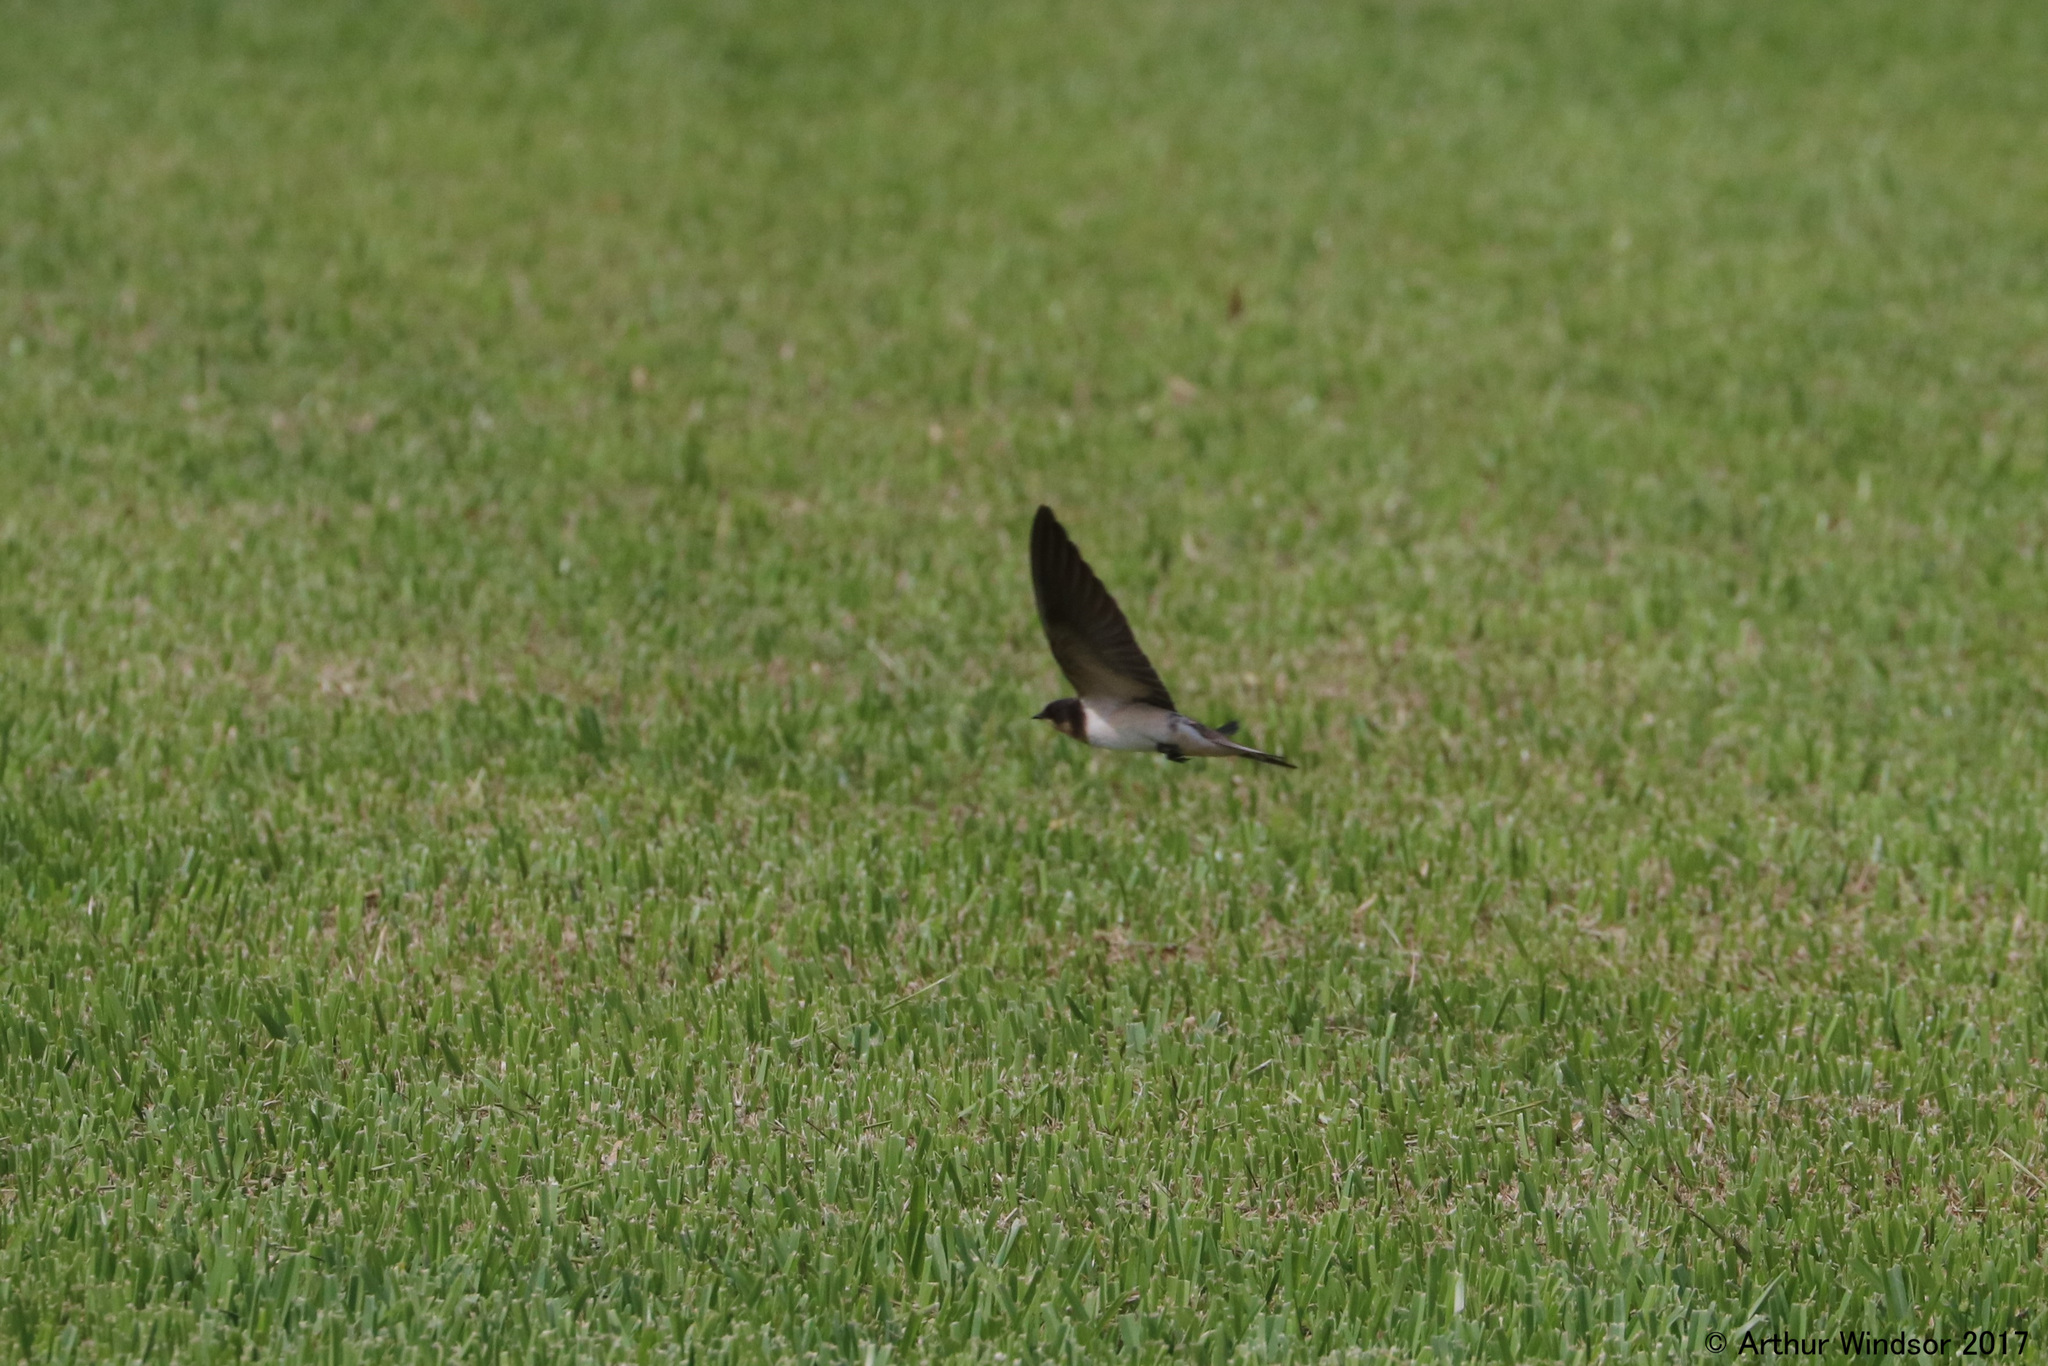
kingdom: Animalia
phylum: Chordata
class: Aves
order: Passeriformes
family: Hirundinidae
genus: Hirundo
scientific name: Hirundo rustica
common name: Barn swallow
